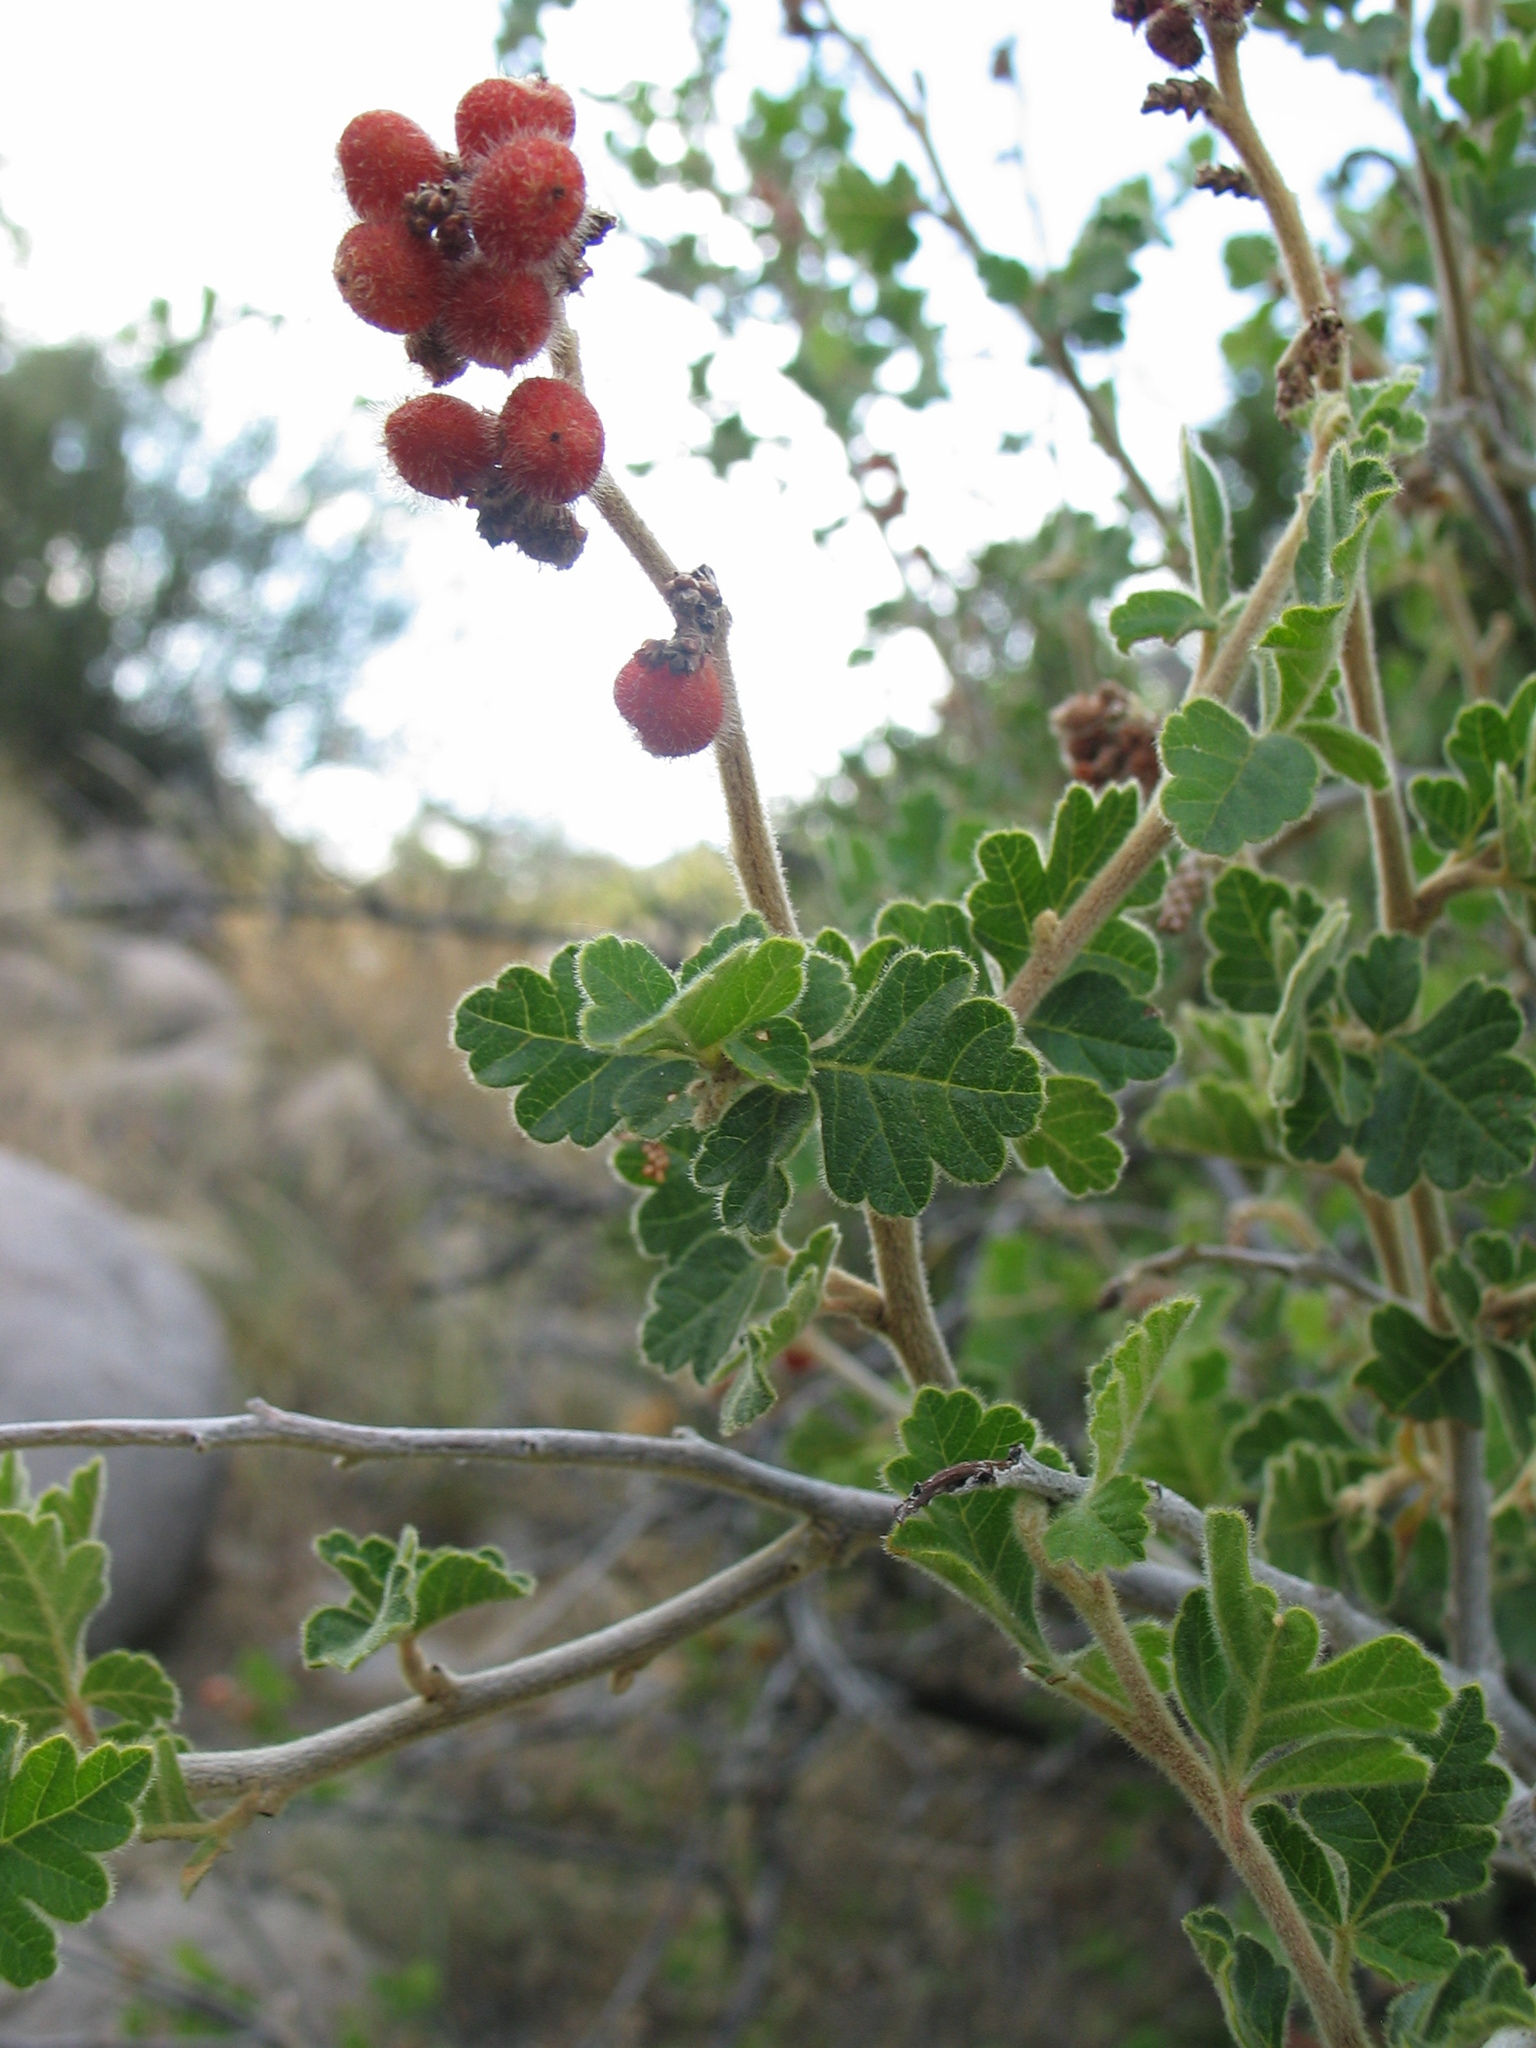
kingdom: Plantae
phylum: Tracheophyta
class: Magnoliopsida
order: Sapindales
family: Anacardiaceae
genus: Rhus
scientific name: Rhus trilobata
